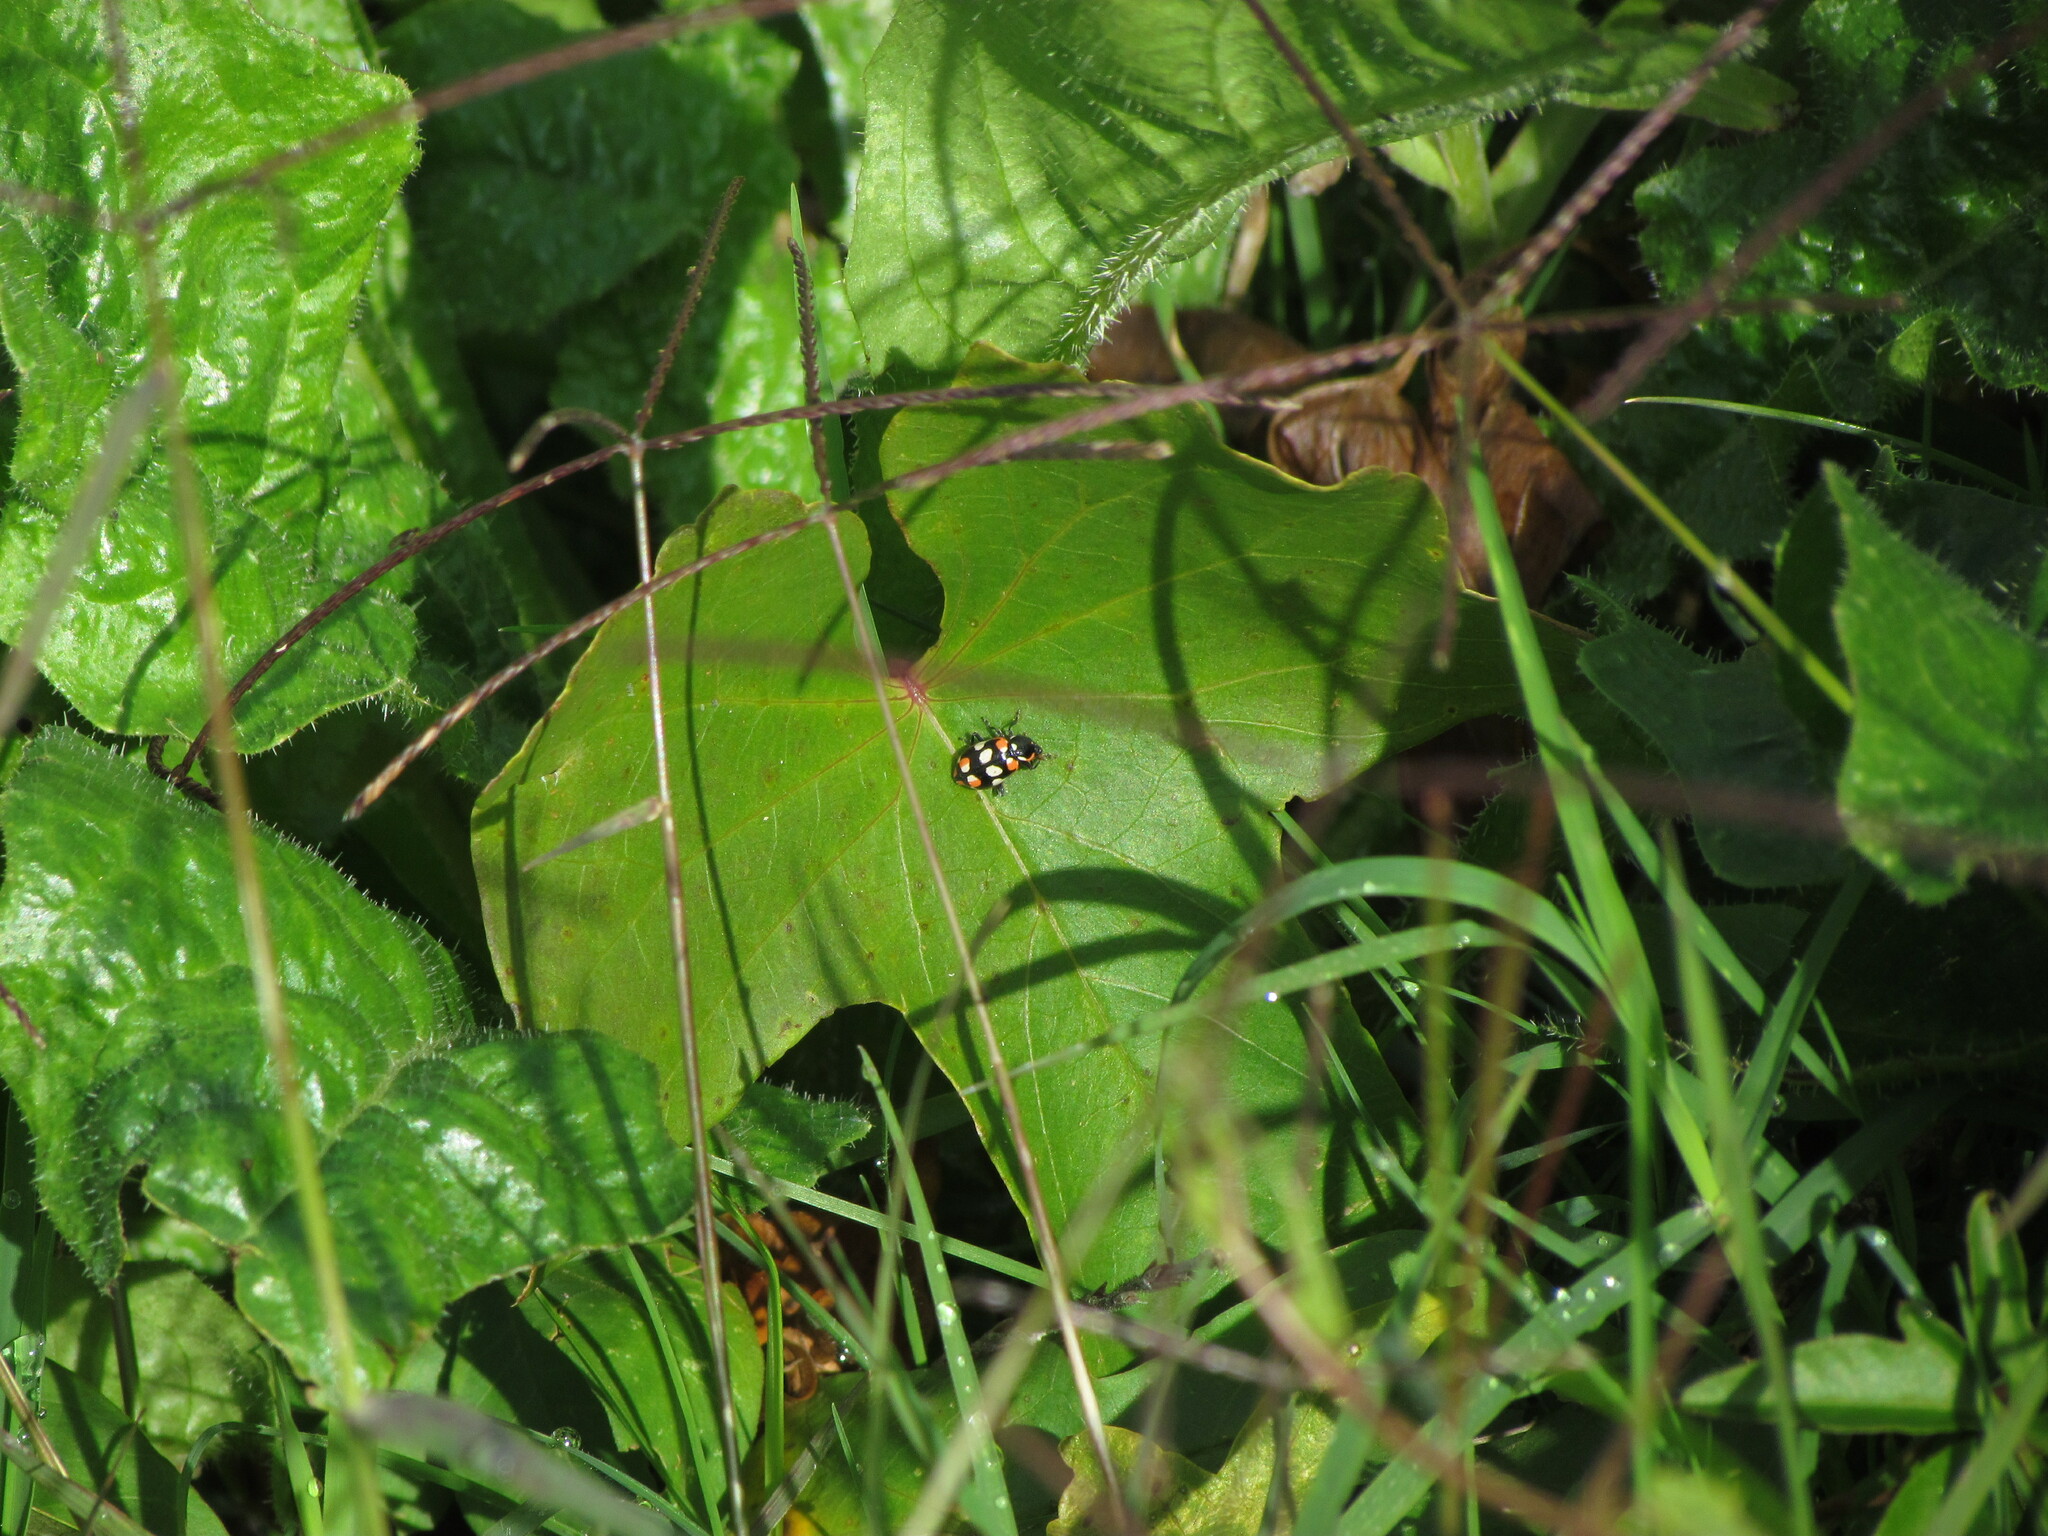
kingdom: Animalia
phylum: Arthropoda
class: Insecta
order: Coleoptera
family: Coccinellidae
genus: Eriopis
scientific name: Eriopis connexa
